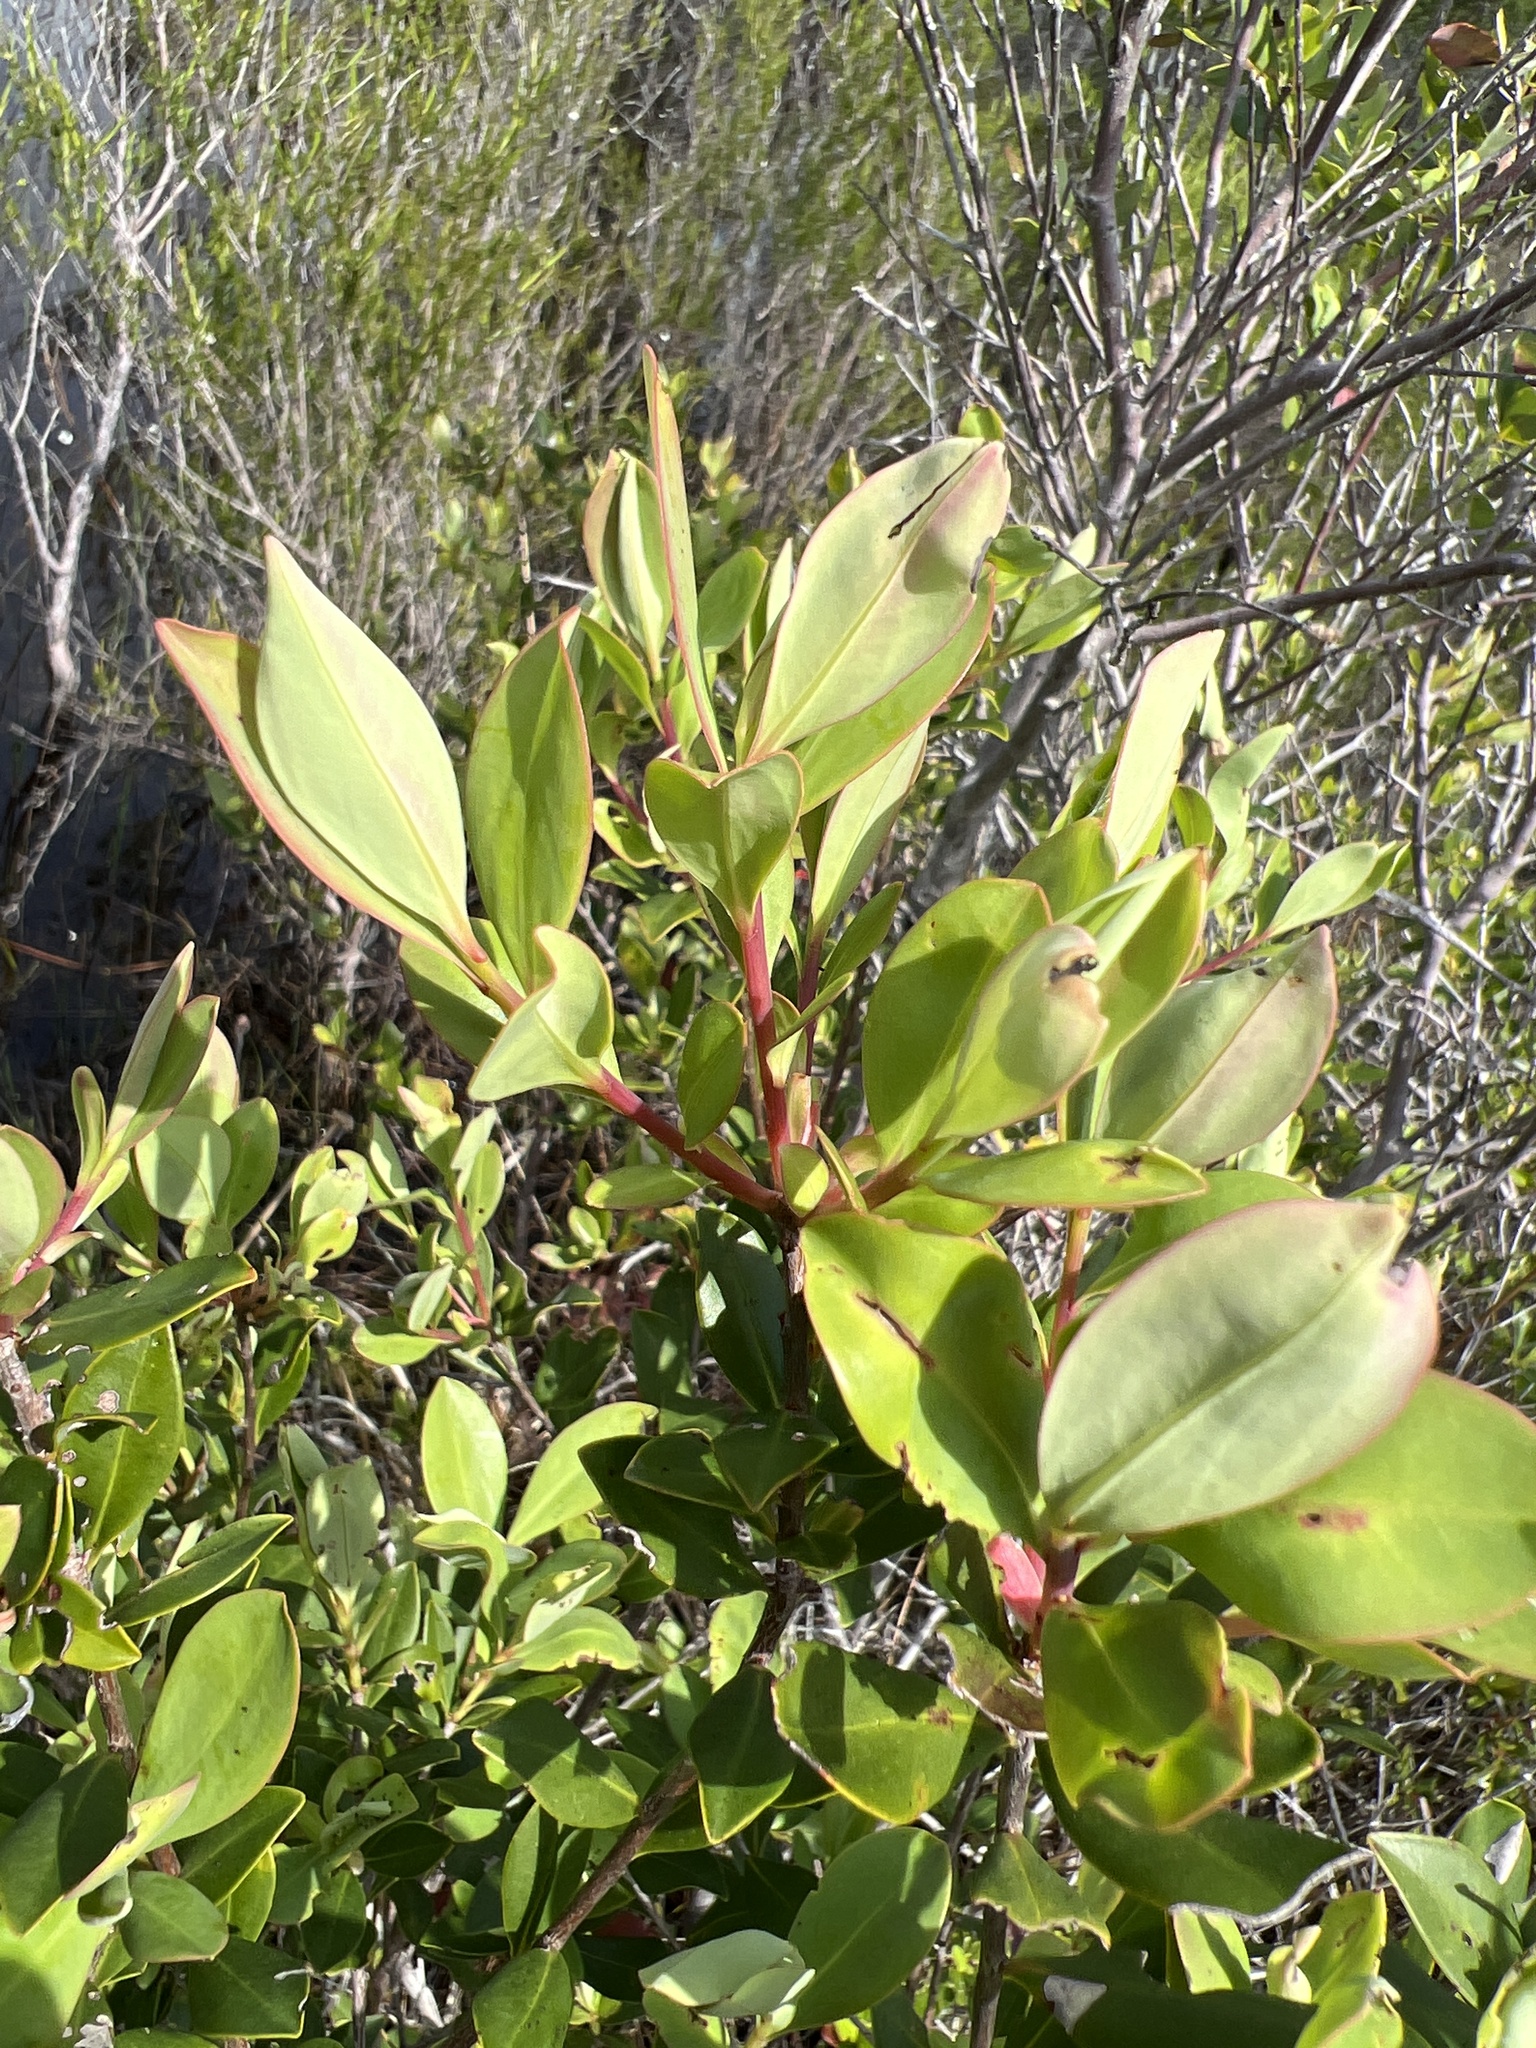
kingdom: Plantae
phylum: Tracheophyta
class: Magnoliopsida
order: Ericales
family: Cyrillaceae
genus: Cliftonia
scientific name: Cliftonia monophylla
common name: Titi
